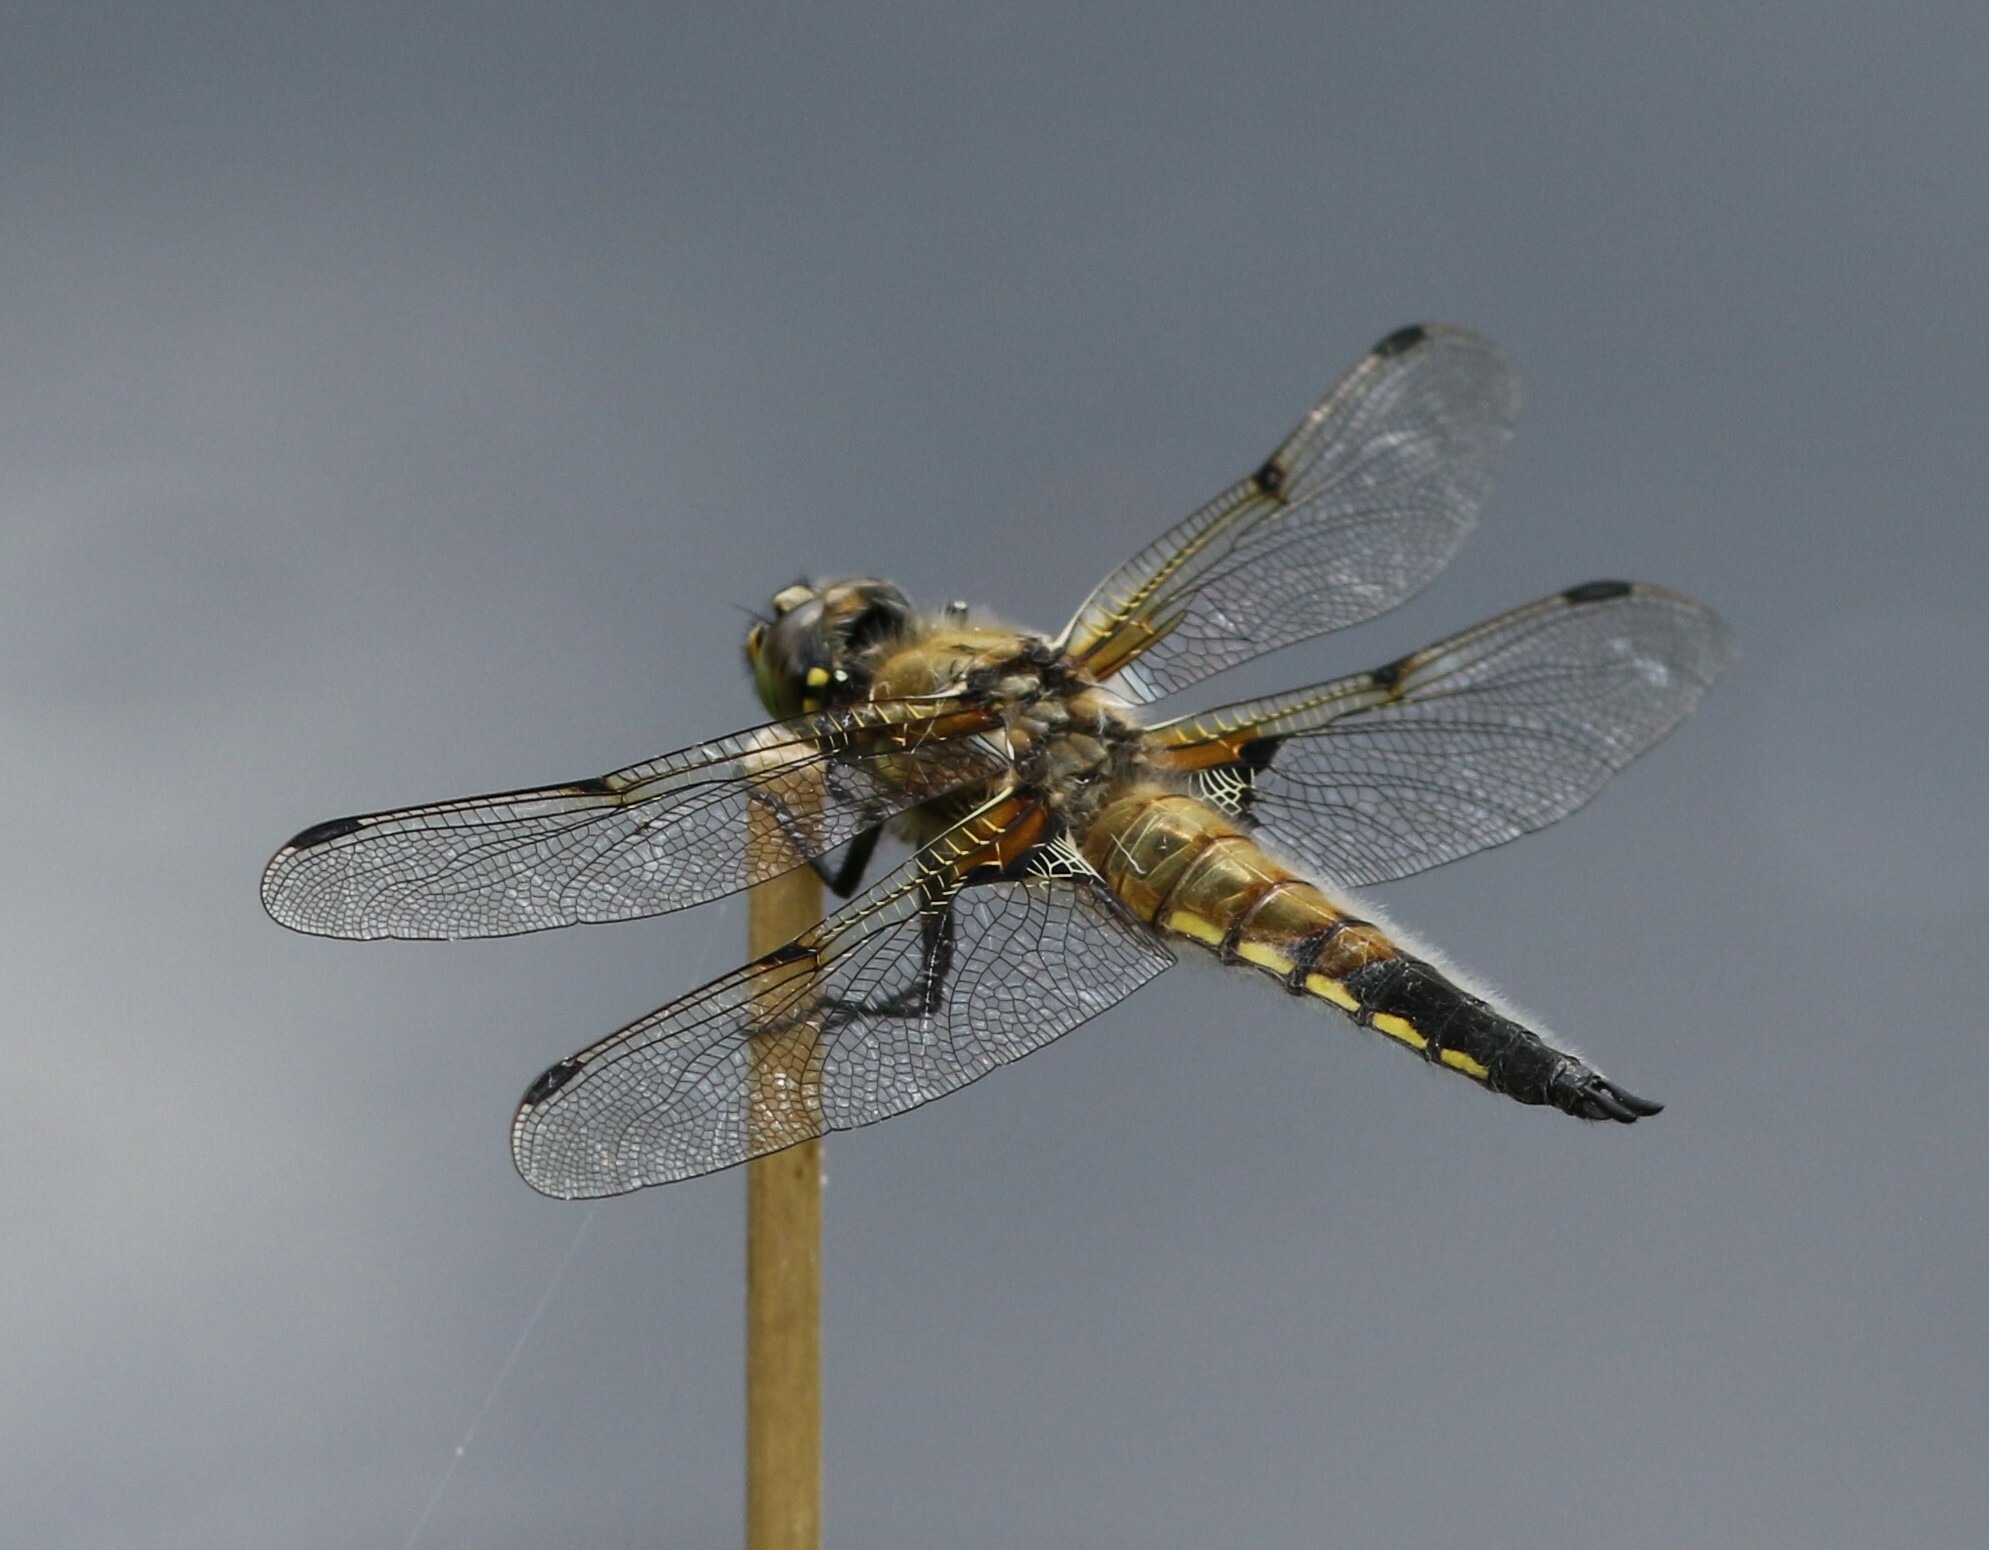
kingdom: Animalia
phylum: Arthropoda
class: Insecta
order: Odonata
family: Libellulidae
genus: Libellula
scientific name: Libellula quadrimaculata
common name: Four-spotted chaser
